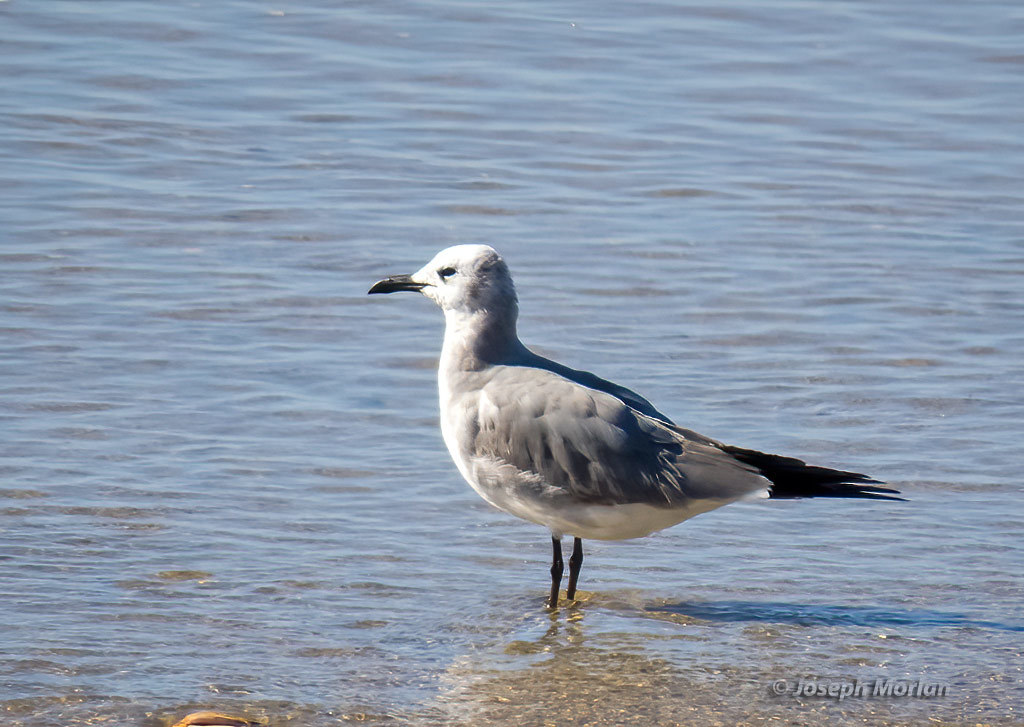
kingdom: Animalia
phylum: Chordata
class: Aves
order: Charadriiformes
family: Laridae
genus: Leucophaeus
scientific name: Leucophaeus atricilla
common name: Laughing gull
